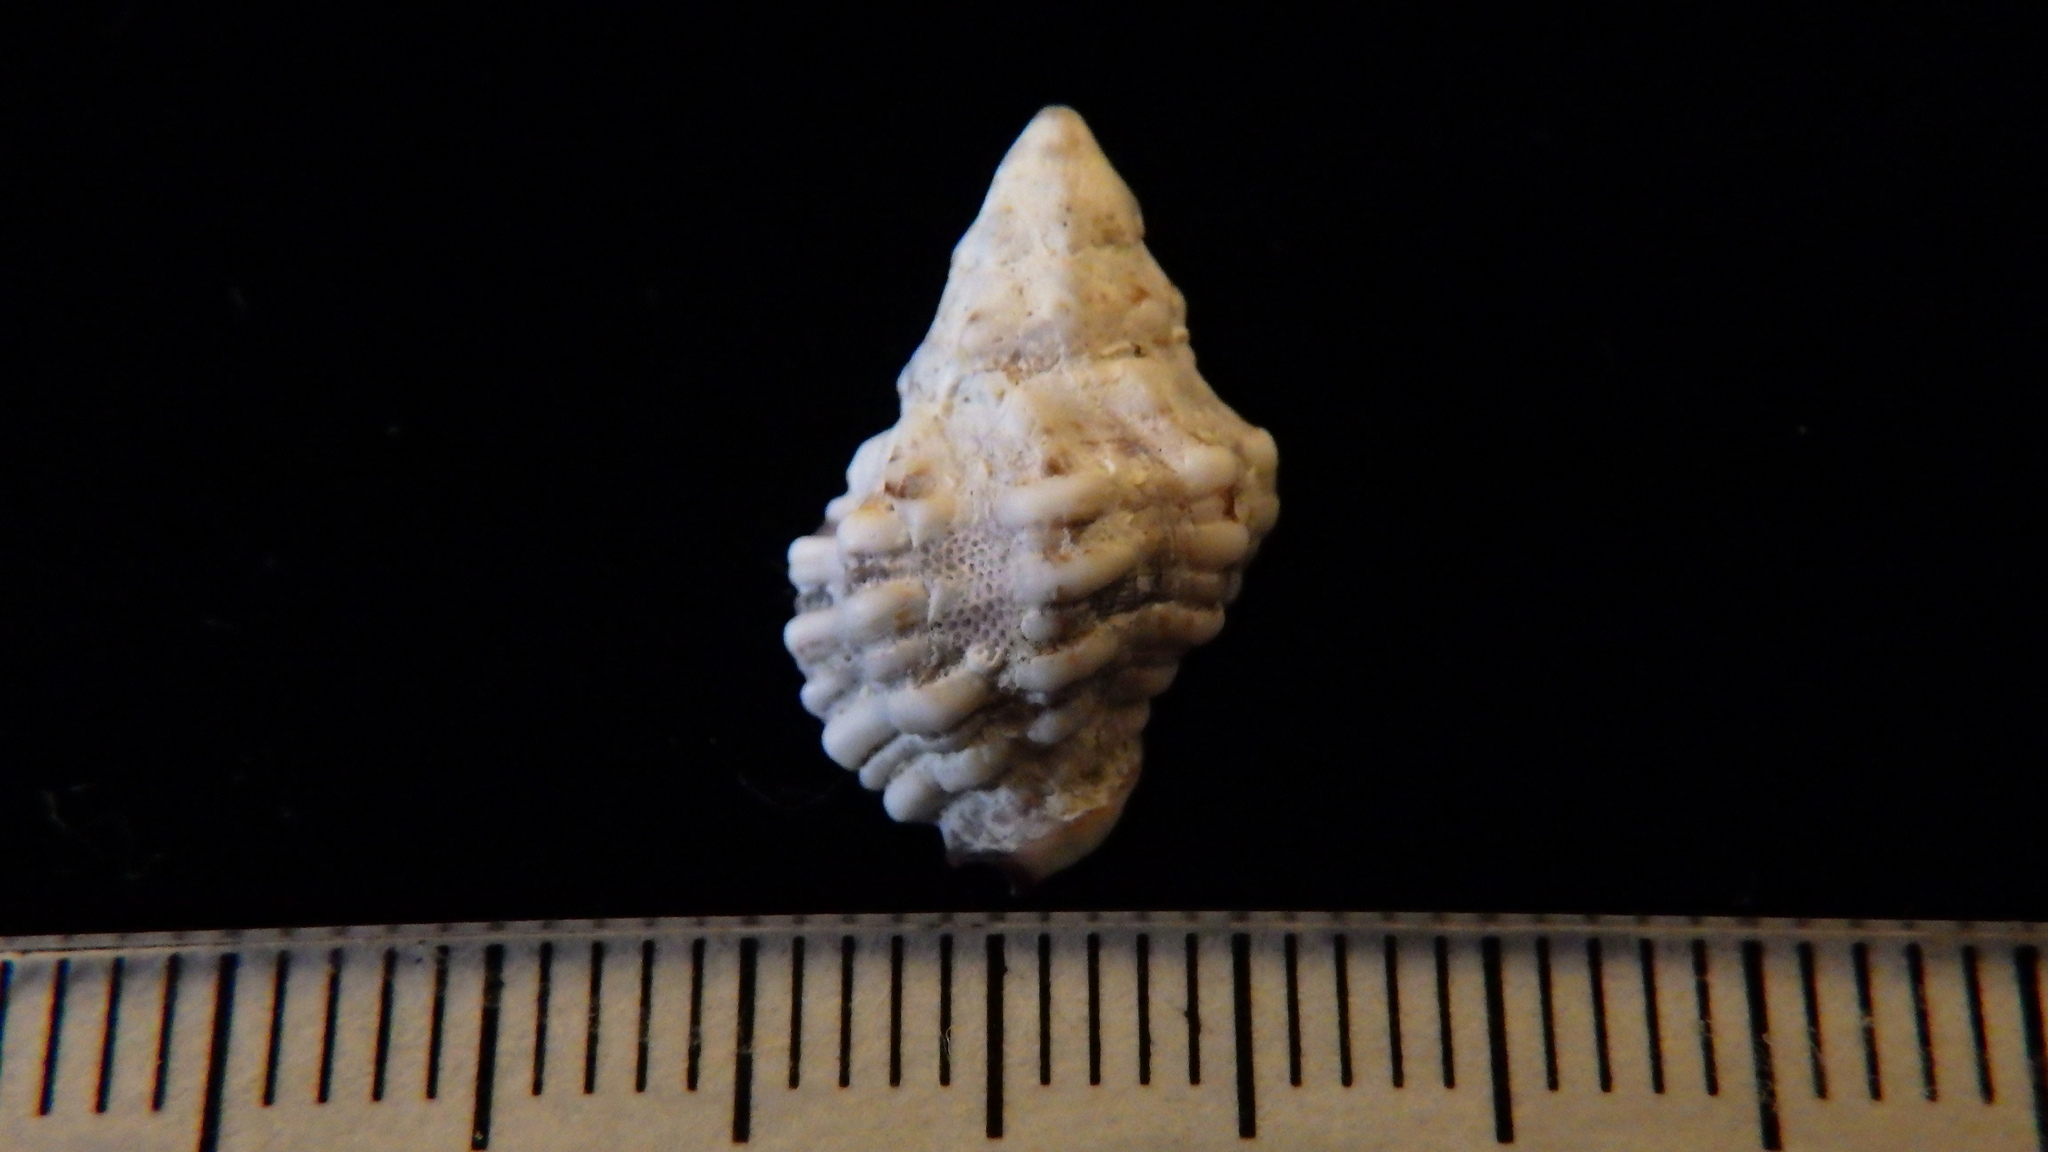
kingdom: Animalia
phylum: Mollusca
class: Gastropoda
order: Neogastropoda
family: Muricidae
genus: Pascula
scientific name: Pascula ochrostoma
